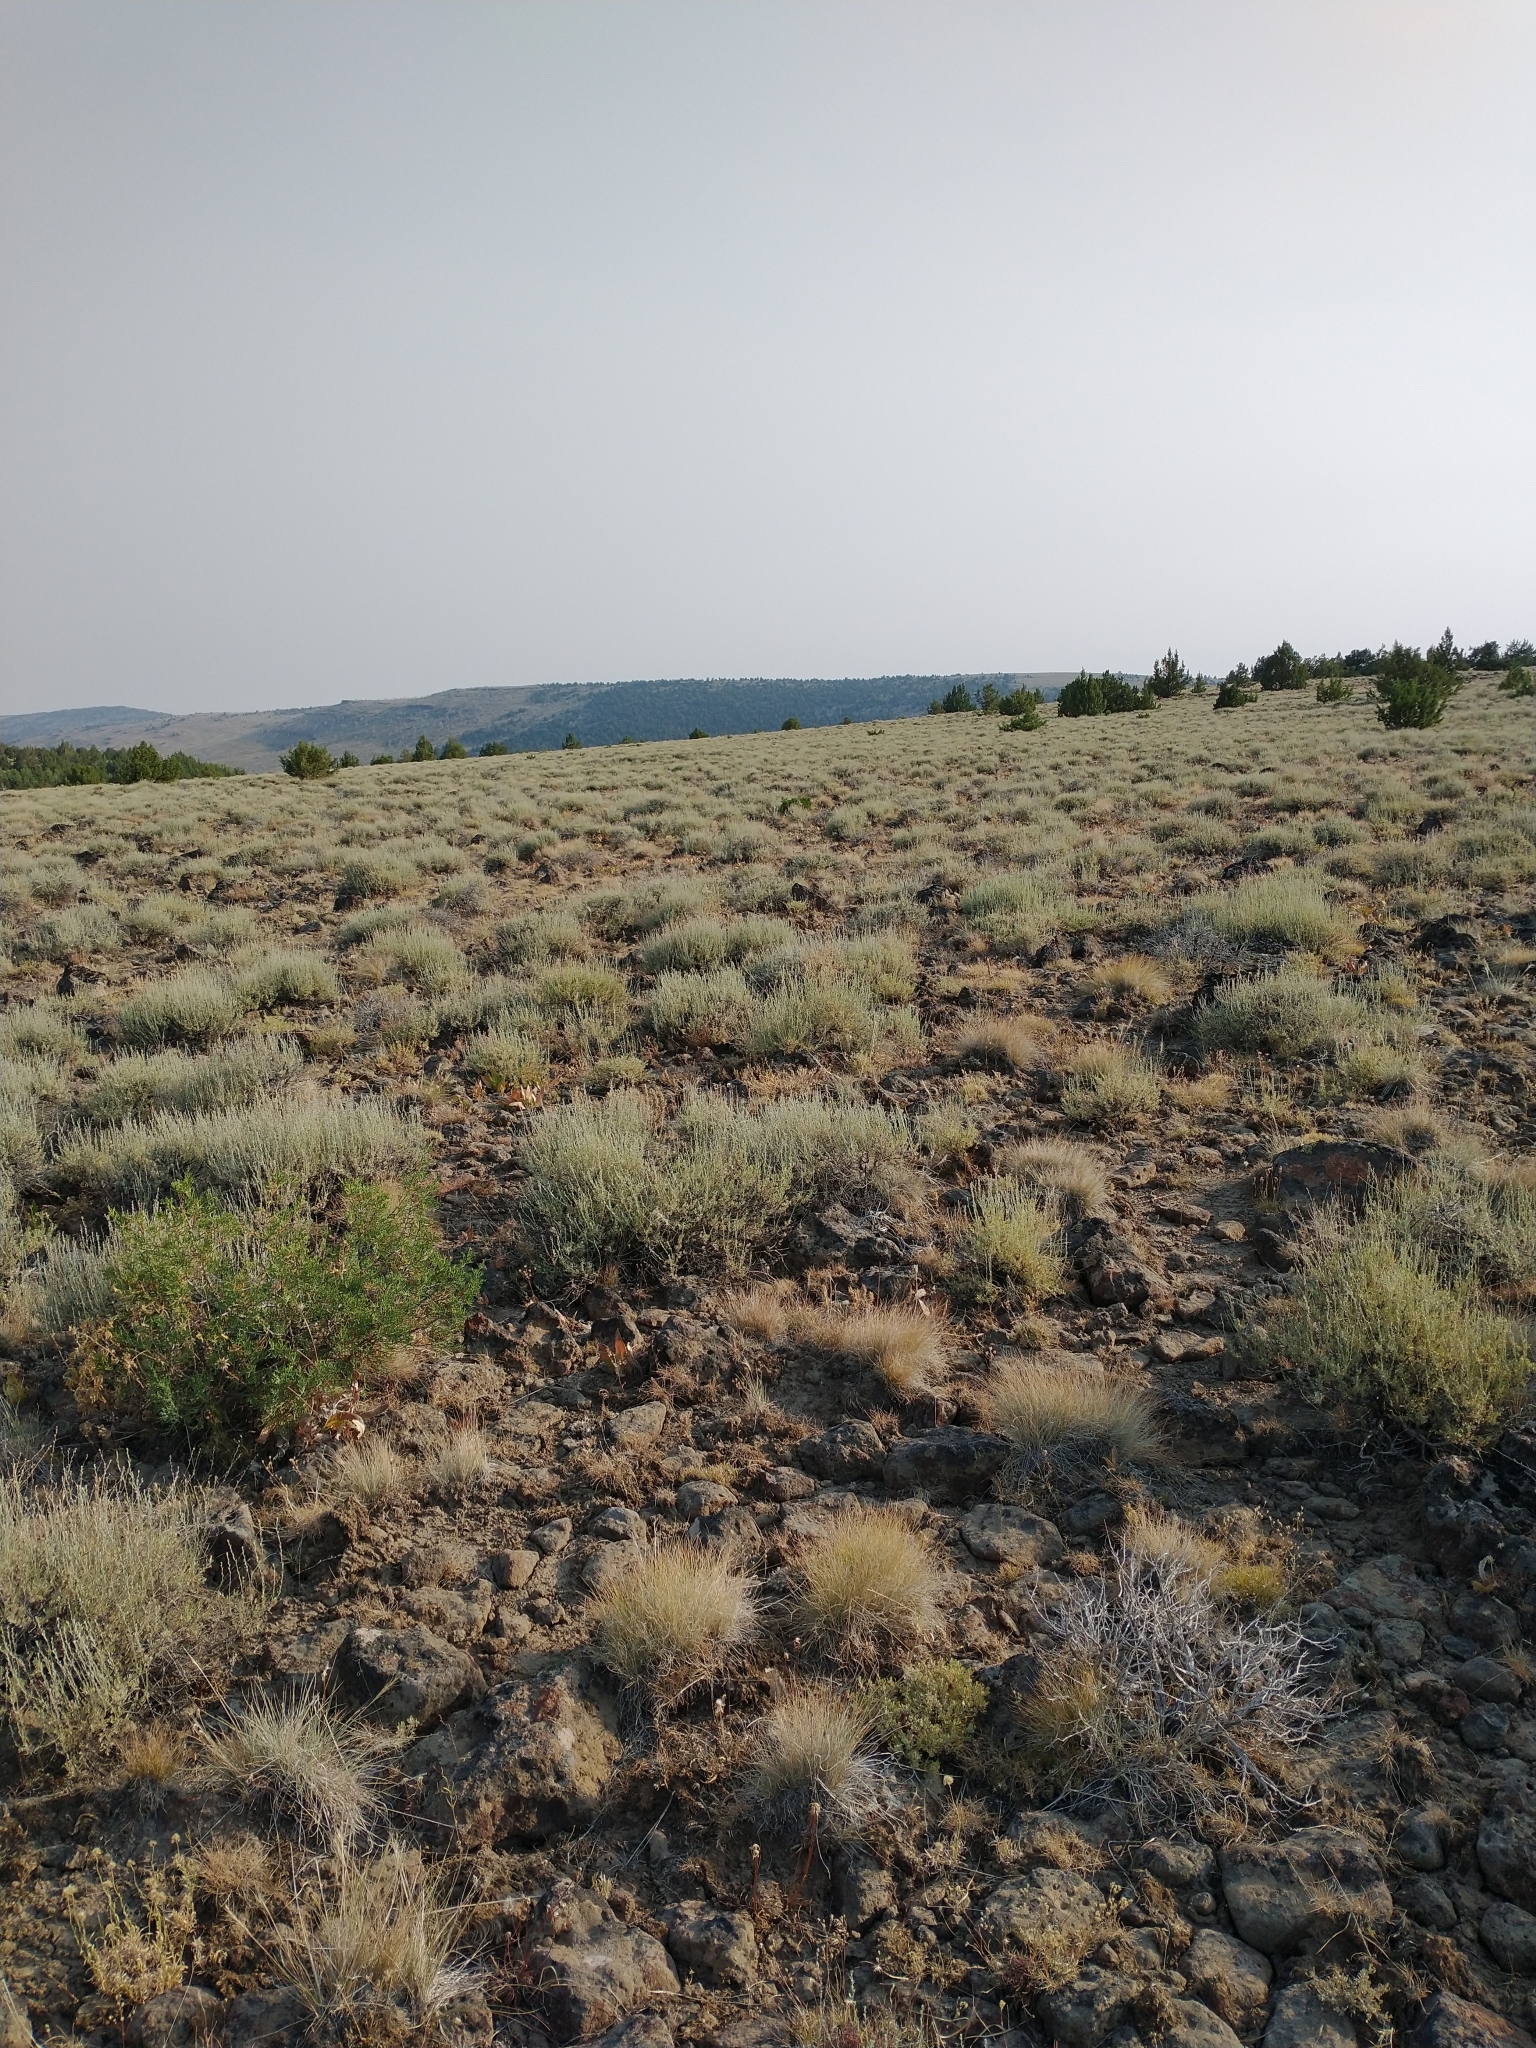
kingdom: Plantae
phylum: Tracheophyta
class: Magnoliopsida
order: Asterales
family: Asteraceae
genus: Artemisia
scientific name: Artemisia arbuscula
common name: Sagebrush
